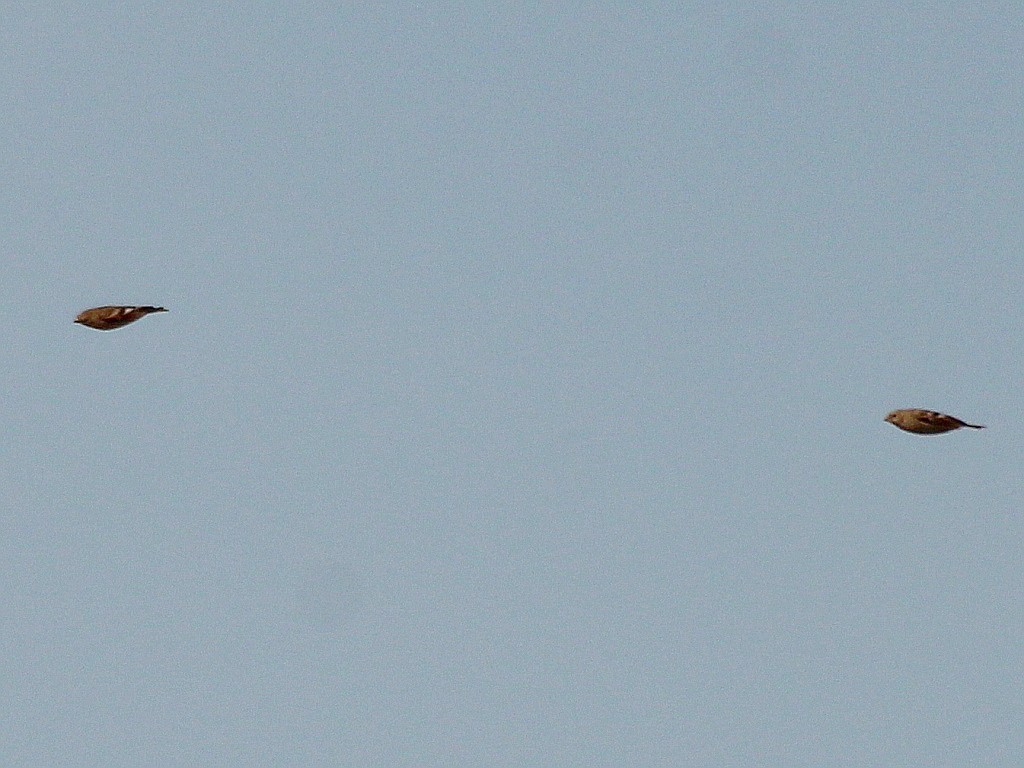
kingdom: Animalia
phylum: Chordata
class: Aves
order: Passeriformes
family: Fringillidae
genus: Bucanetes
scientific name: Bucanetes mongolicus
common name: Mongolian finch
